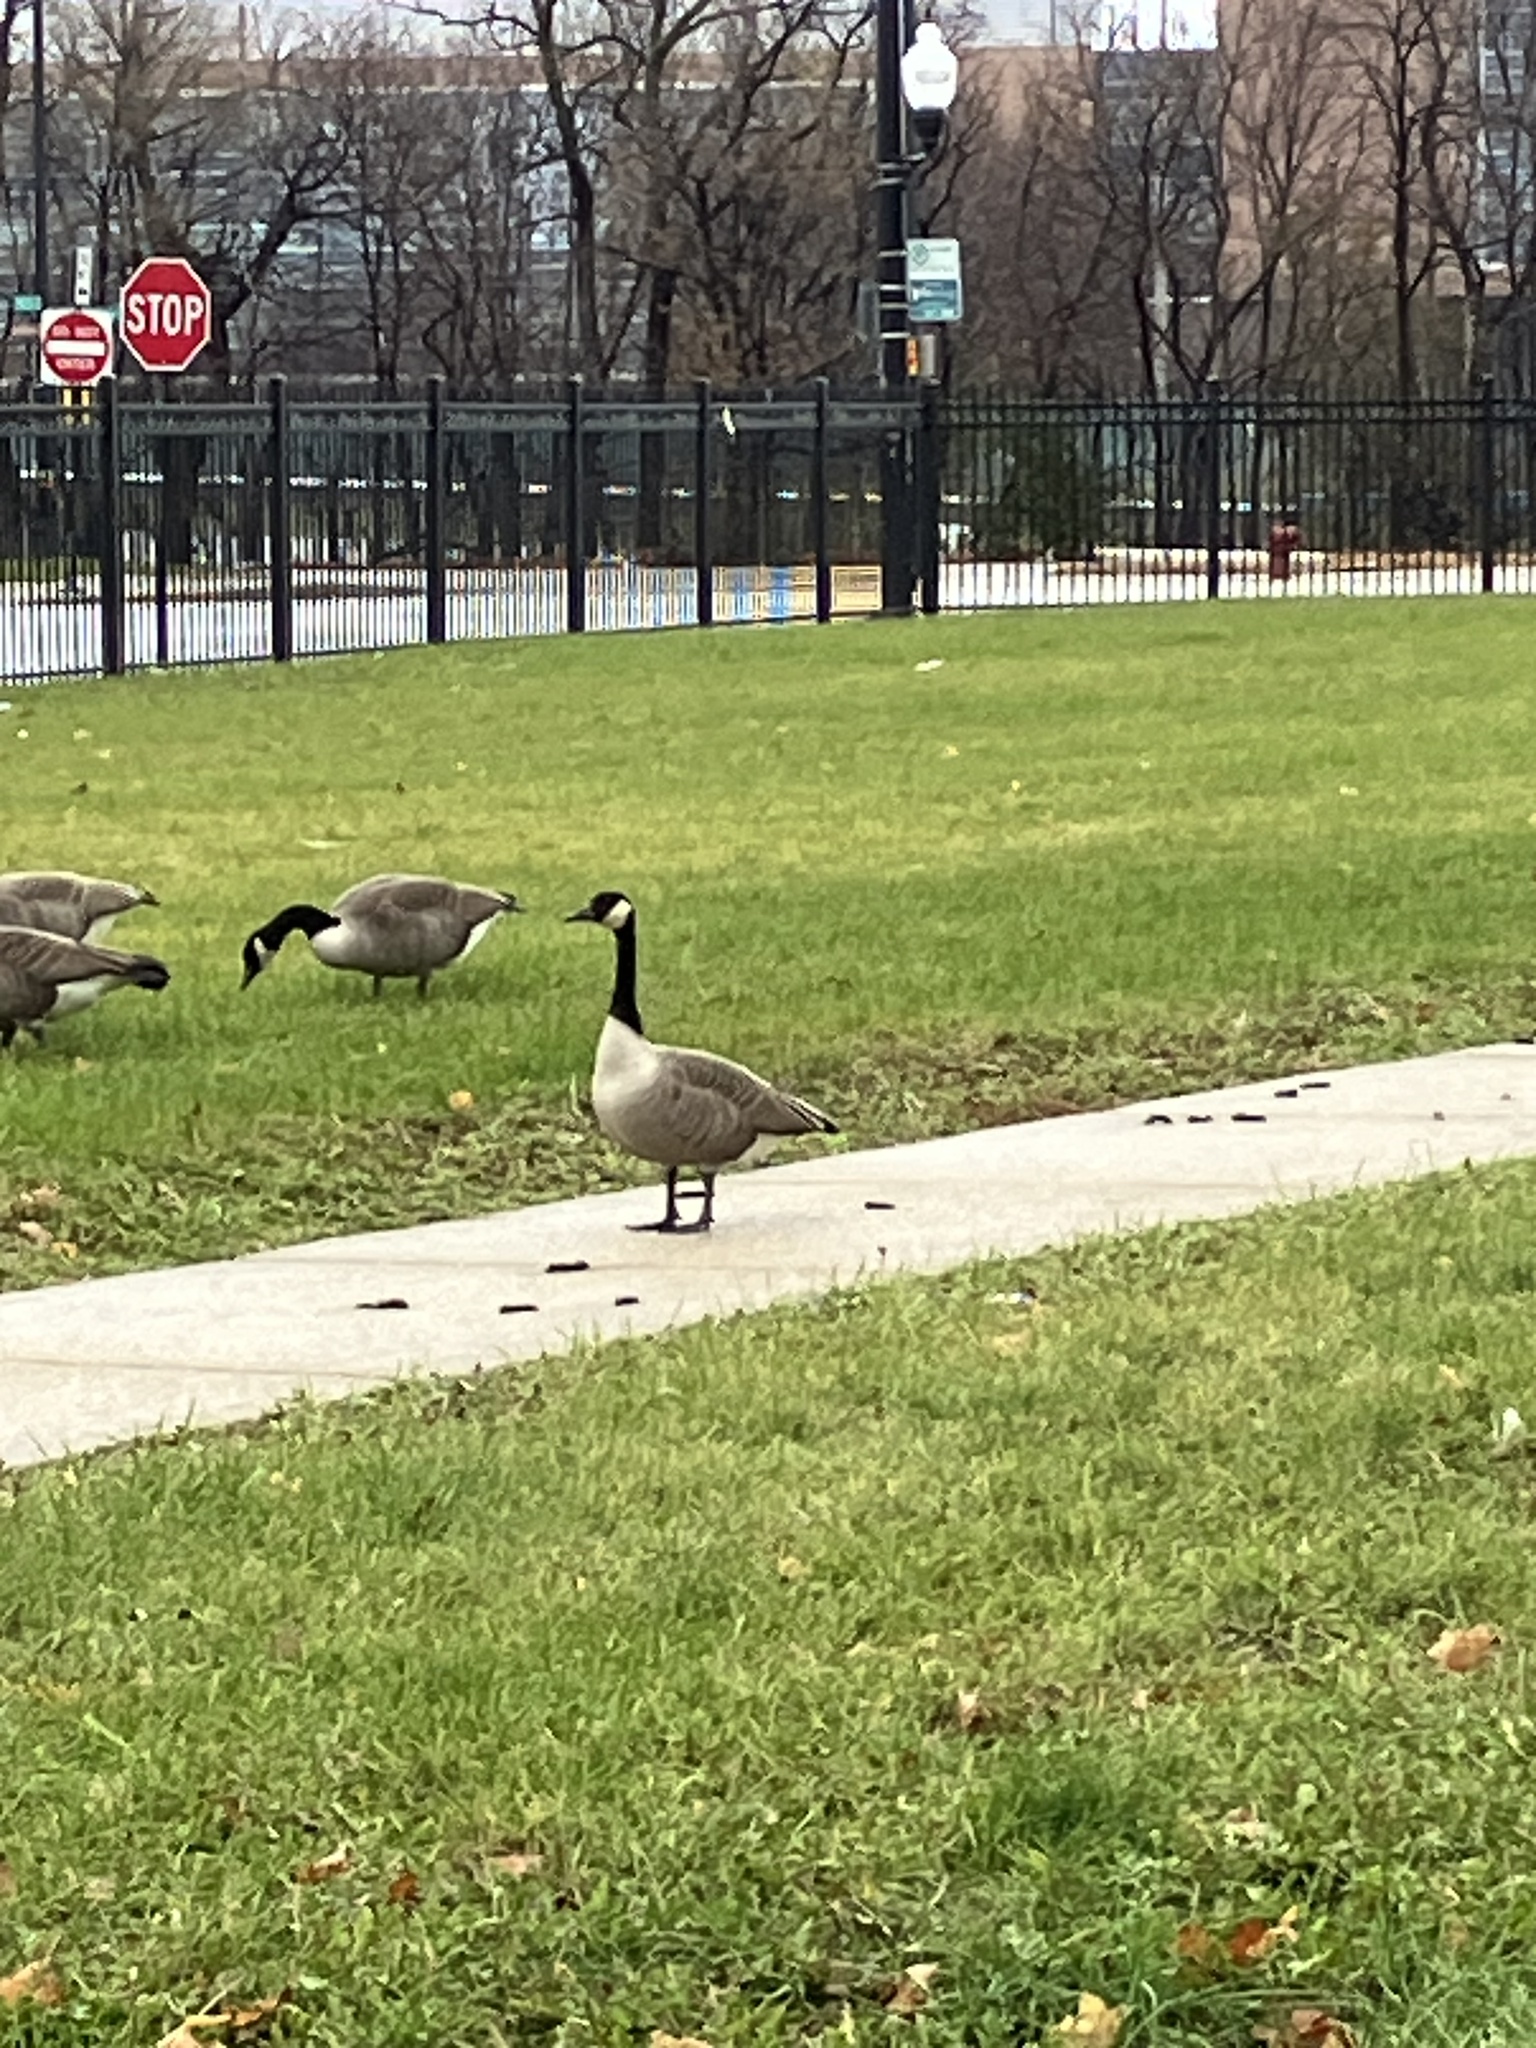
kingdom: Animalia
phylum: Chordata
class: Aves
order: Anseriformes
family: Anatidae
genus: Branta
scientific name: Branta canadensis
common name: Canada goose
